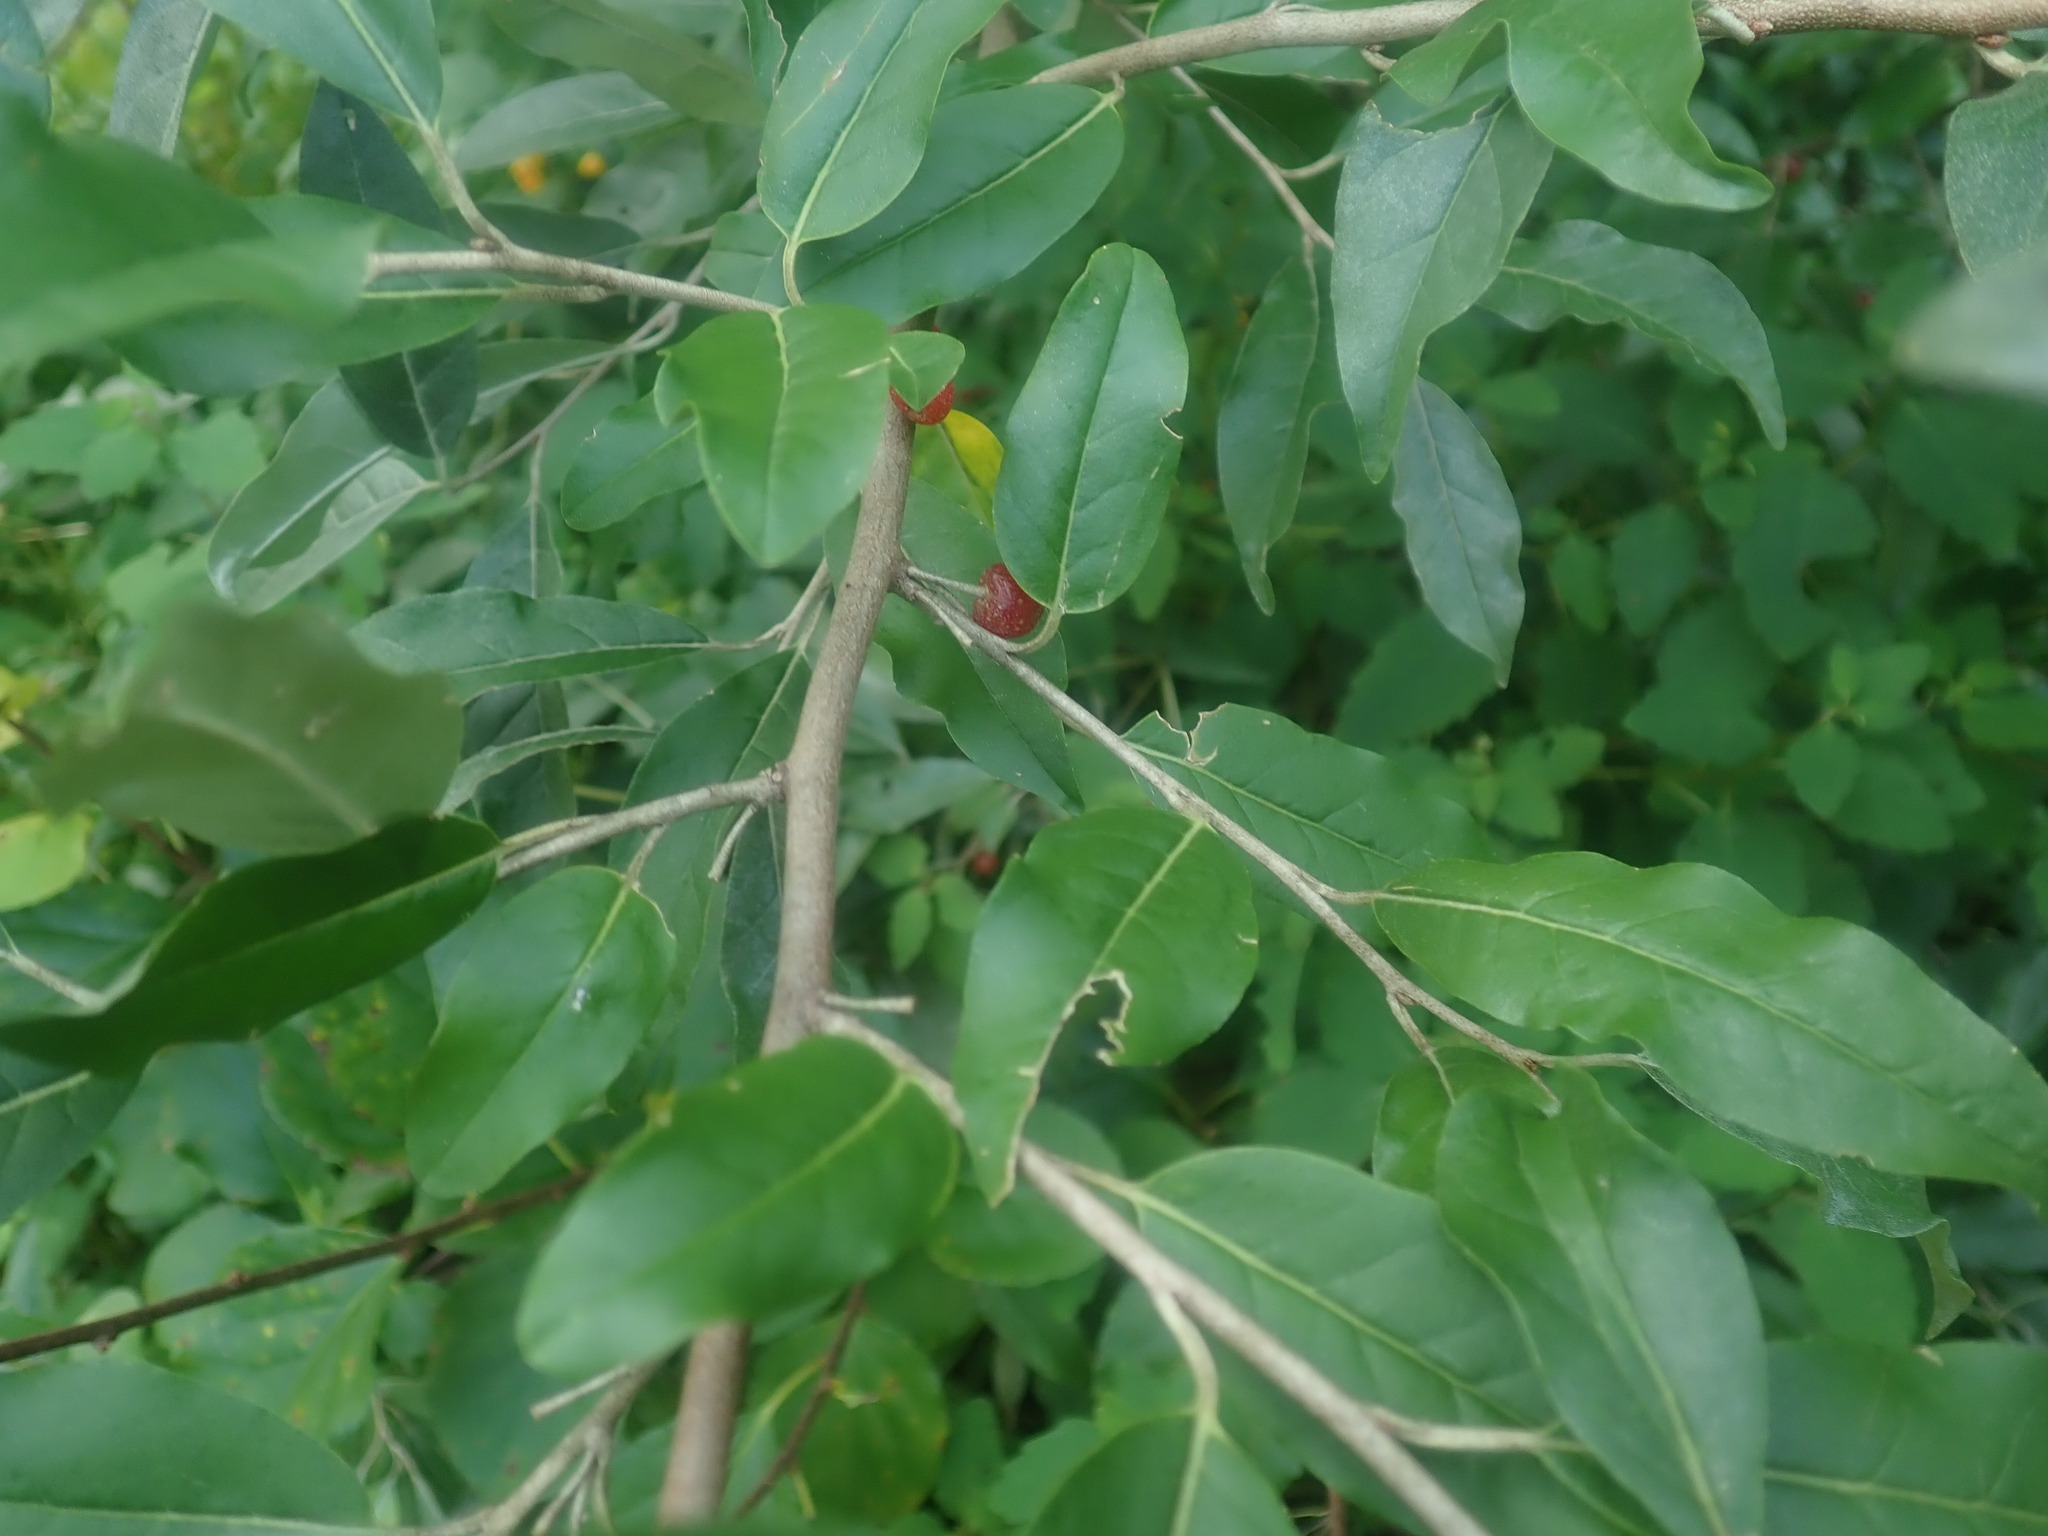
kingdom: Plantae
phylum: Tracheophyta
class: Magnoliopsida
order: Rosales
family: Elaeagnaceae
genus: Elaeagnus
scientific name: Elaeagnus umbellata
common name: Autumn olive
